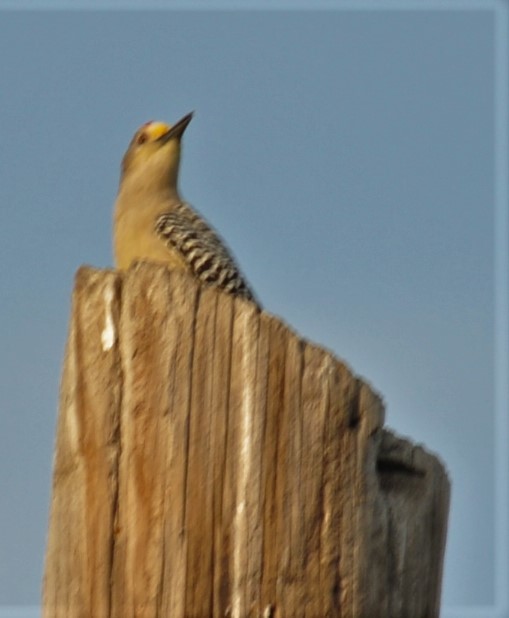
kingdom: Animalia
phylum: Chordata
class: Aves
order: Piciformes
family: Picidae
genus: Melanerpes
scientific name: Melanerpes aurifrons
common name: Golden-fronted woodpecker
